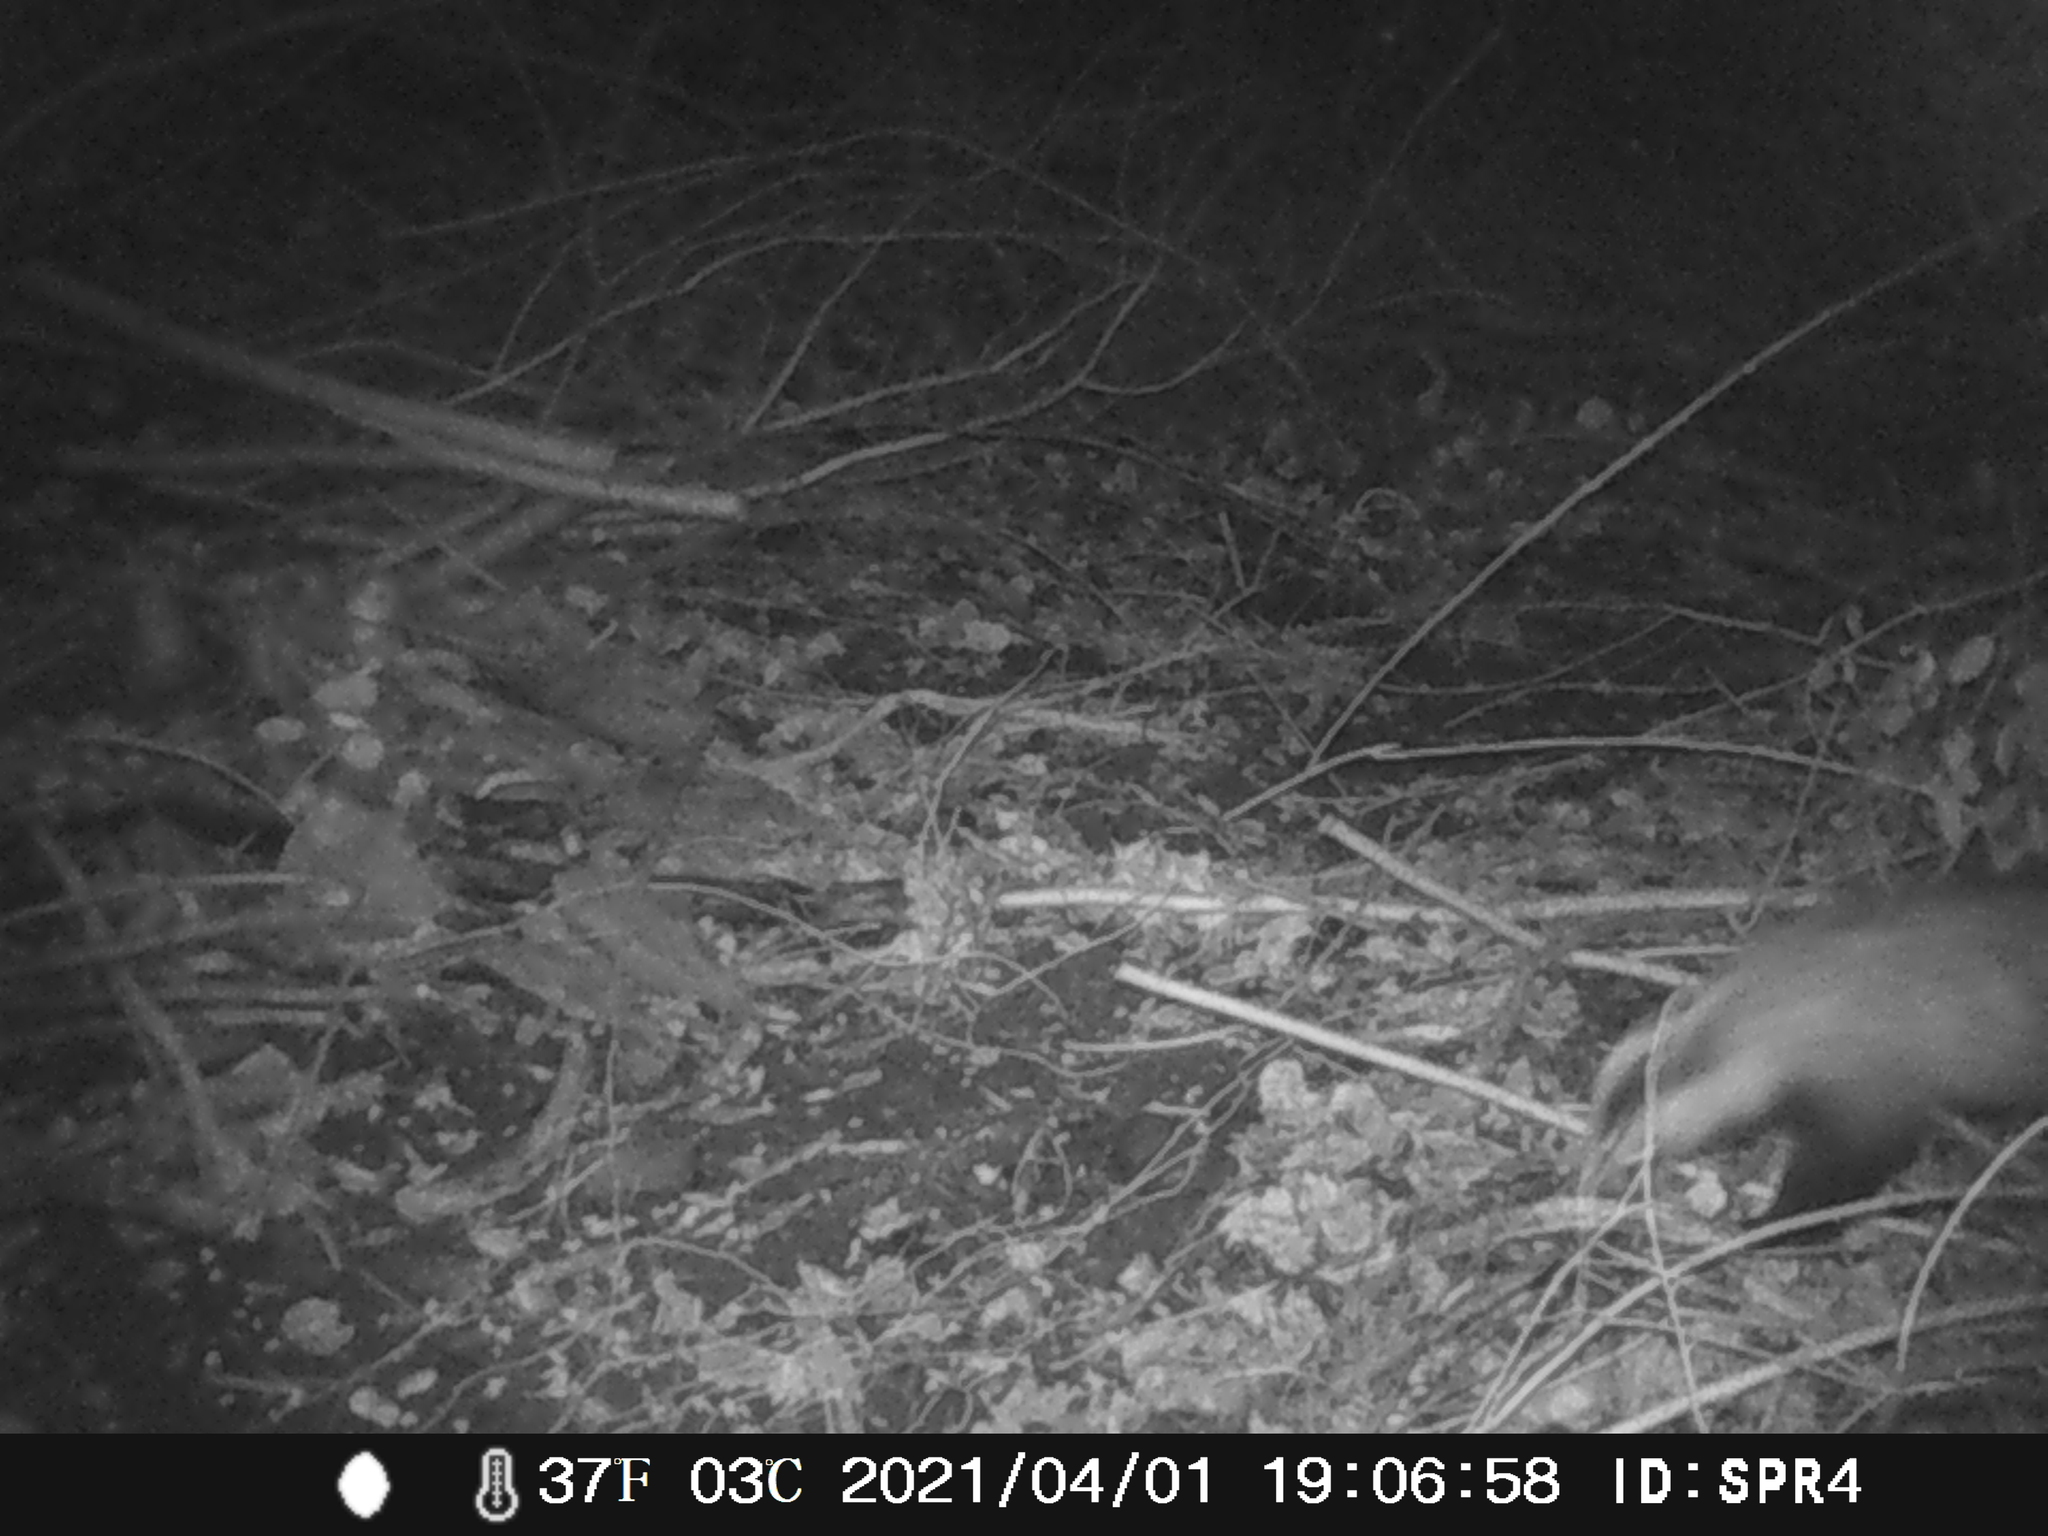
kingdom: Animalia
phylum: Chordata
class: Mammalia
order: Carnivora
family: Mustelidae
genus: Meles
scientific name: Meles meles
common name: Eurasian badger
